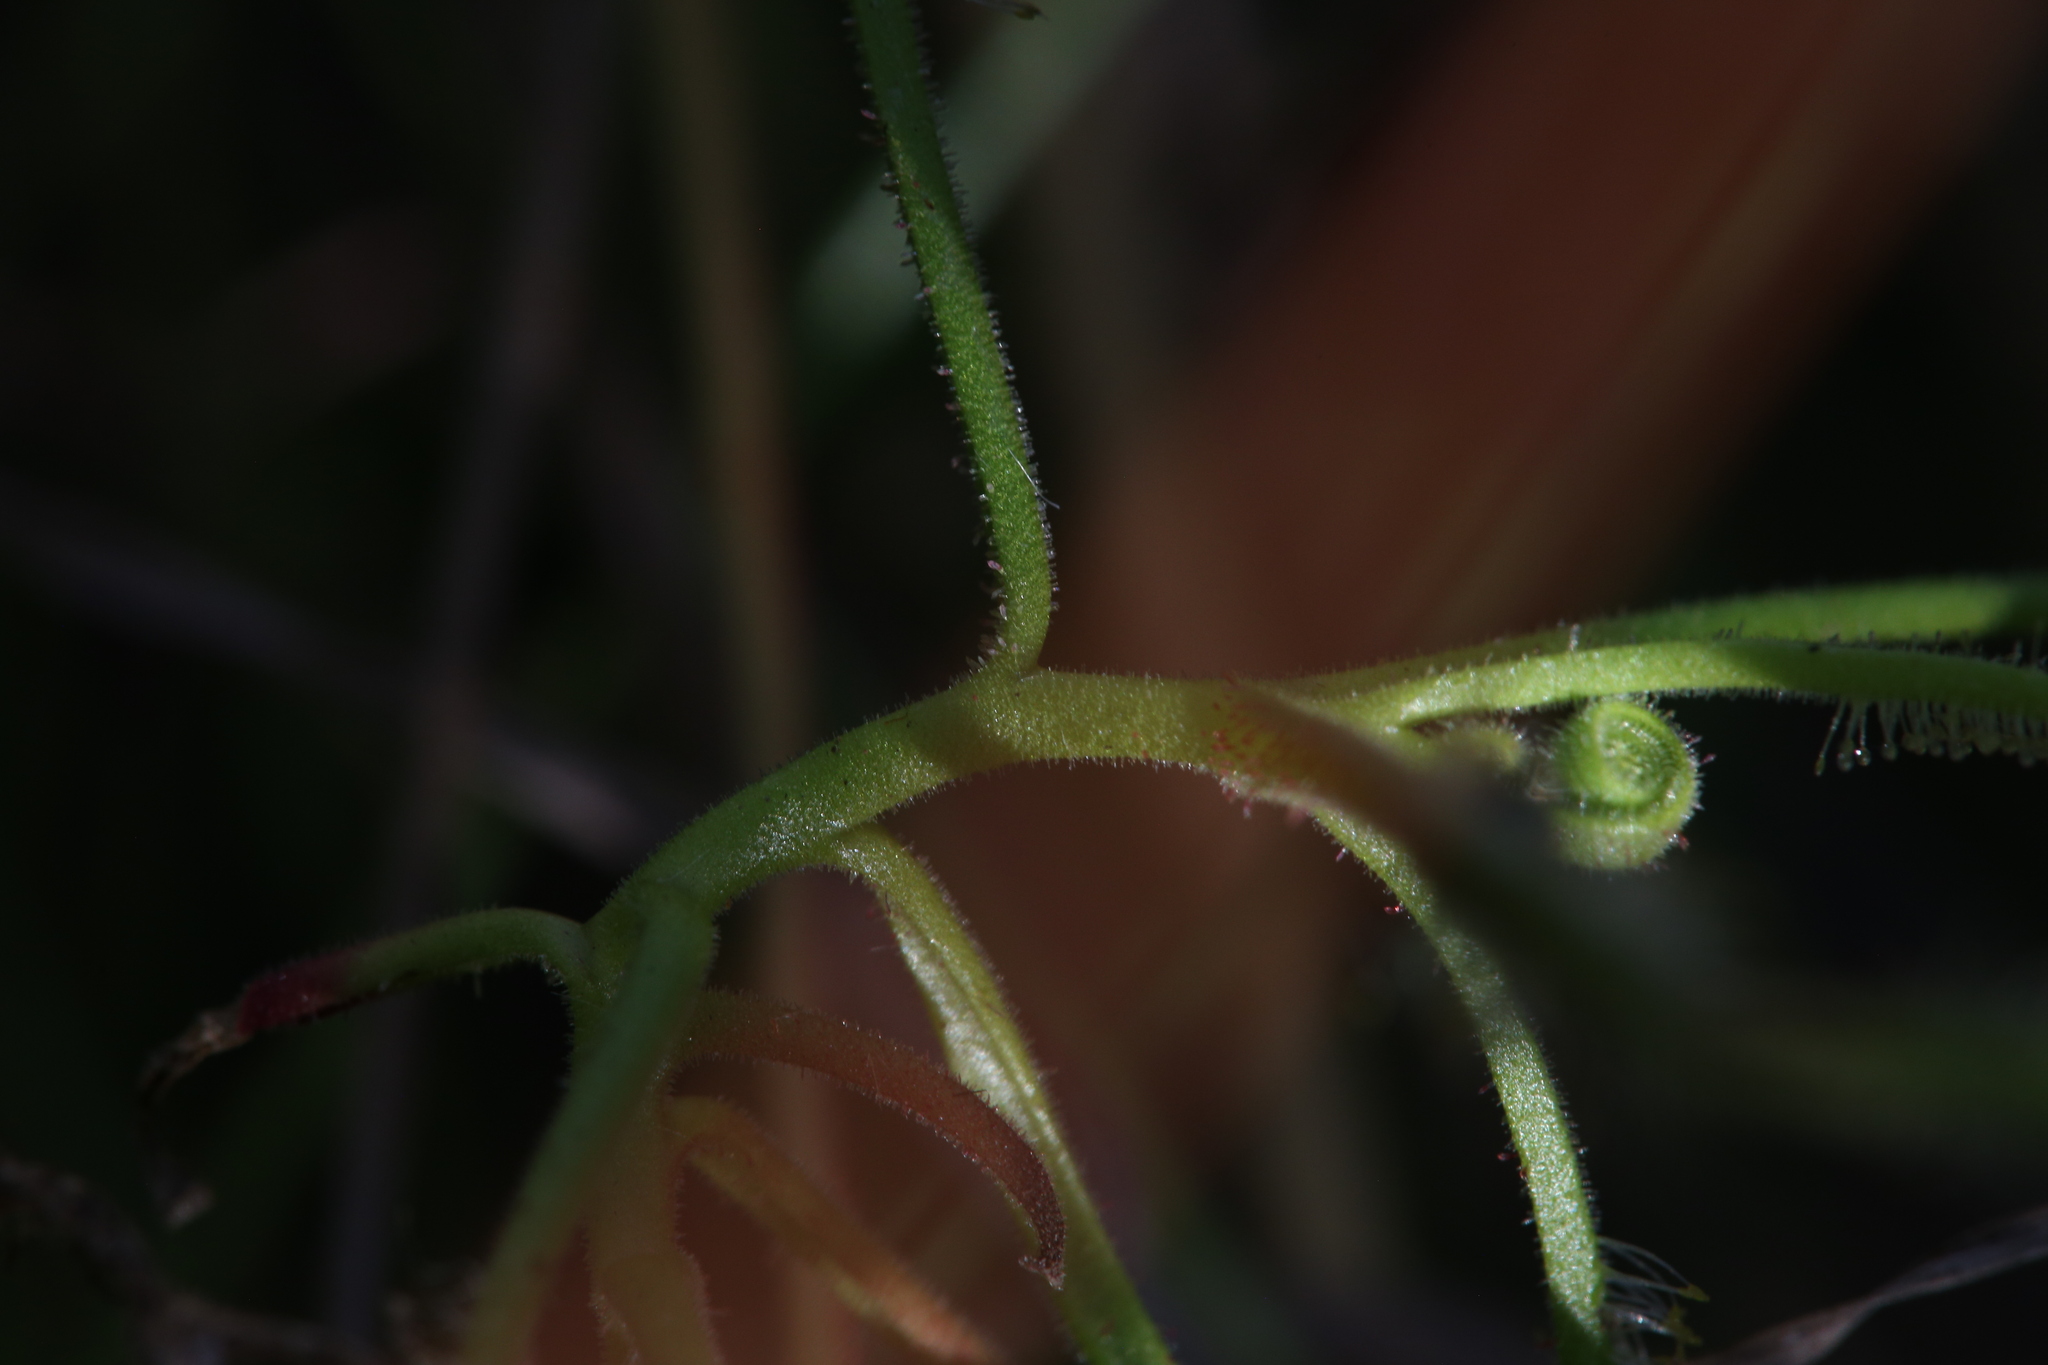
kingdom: Plantae
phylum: Tracheophyta
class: Magnoliopsida
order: Caryophyllales
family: Droseraceae
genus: Drosera
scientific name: Drosera fragrans
